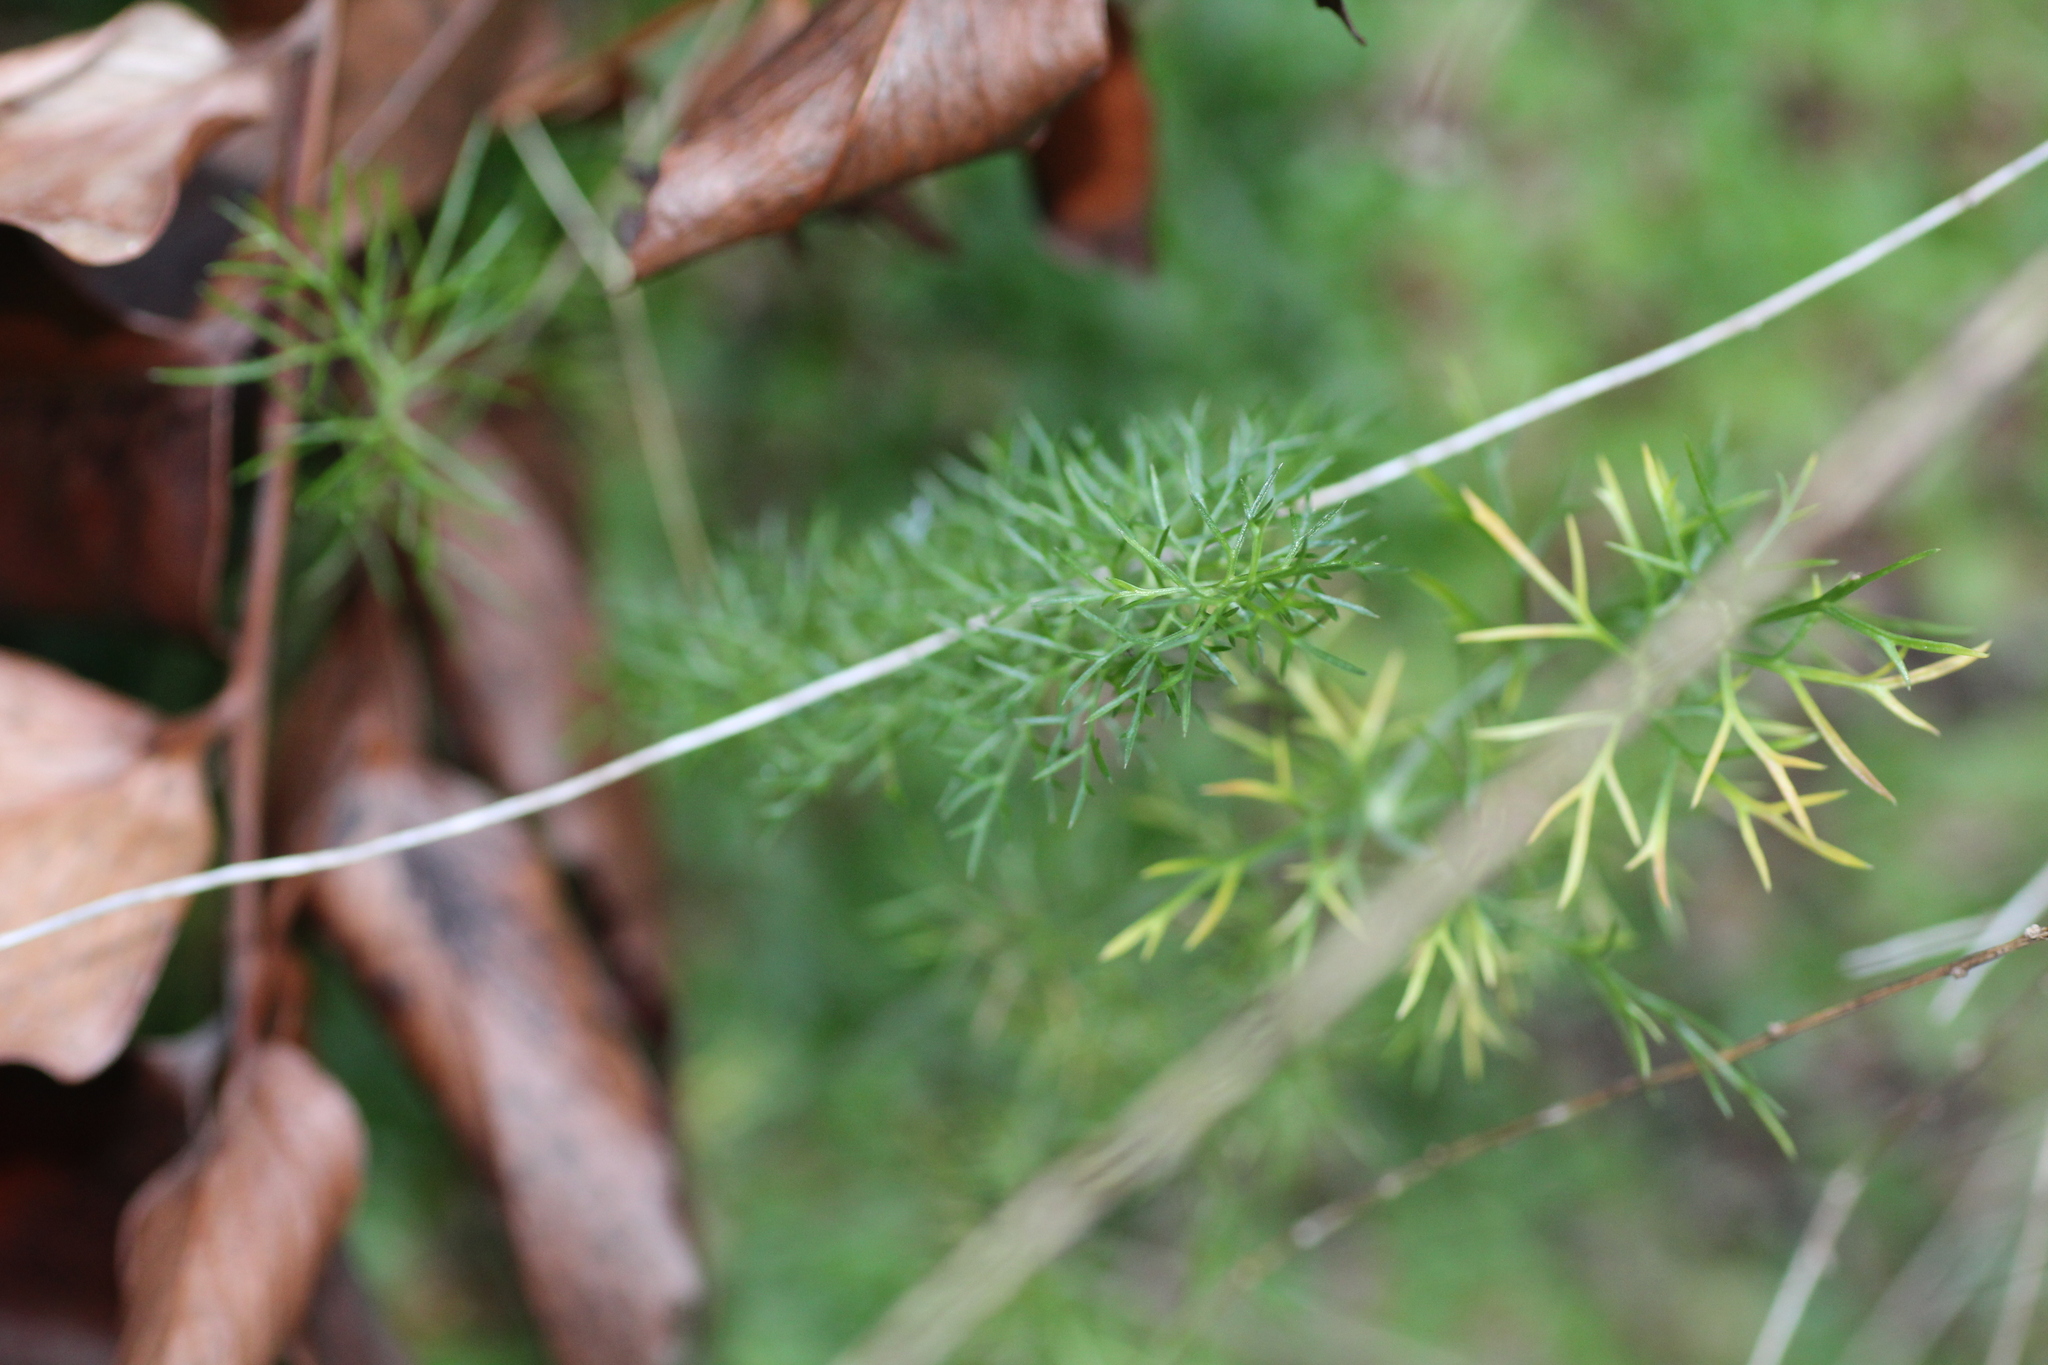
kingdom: Plantae
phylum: Tracheophyta
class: Magnoliopsida
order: Apiales
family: Apiaceae
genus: Foeniculum
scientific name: Foeniculum vulgare
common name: Fennel
